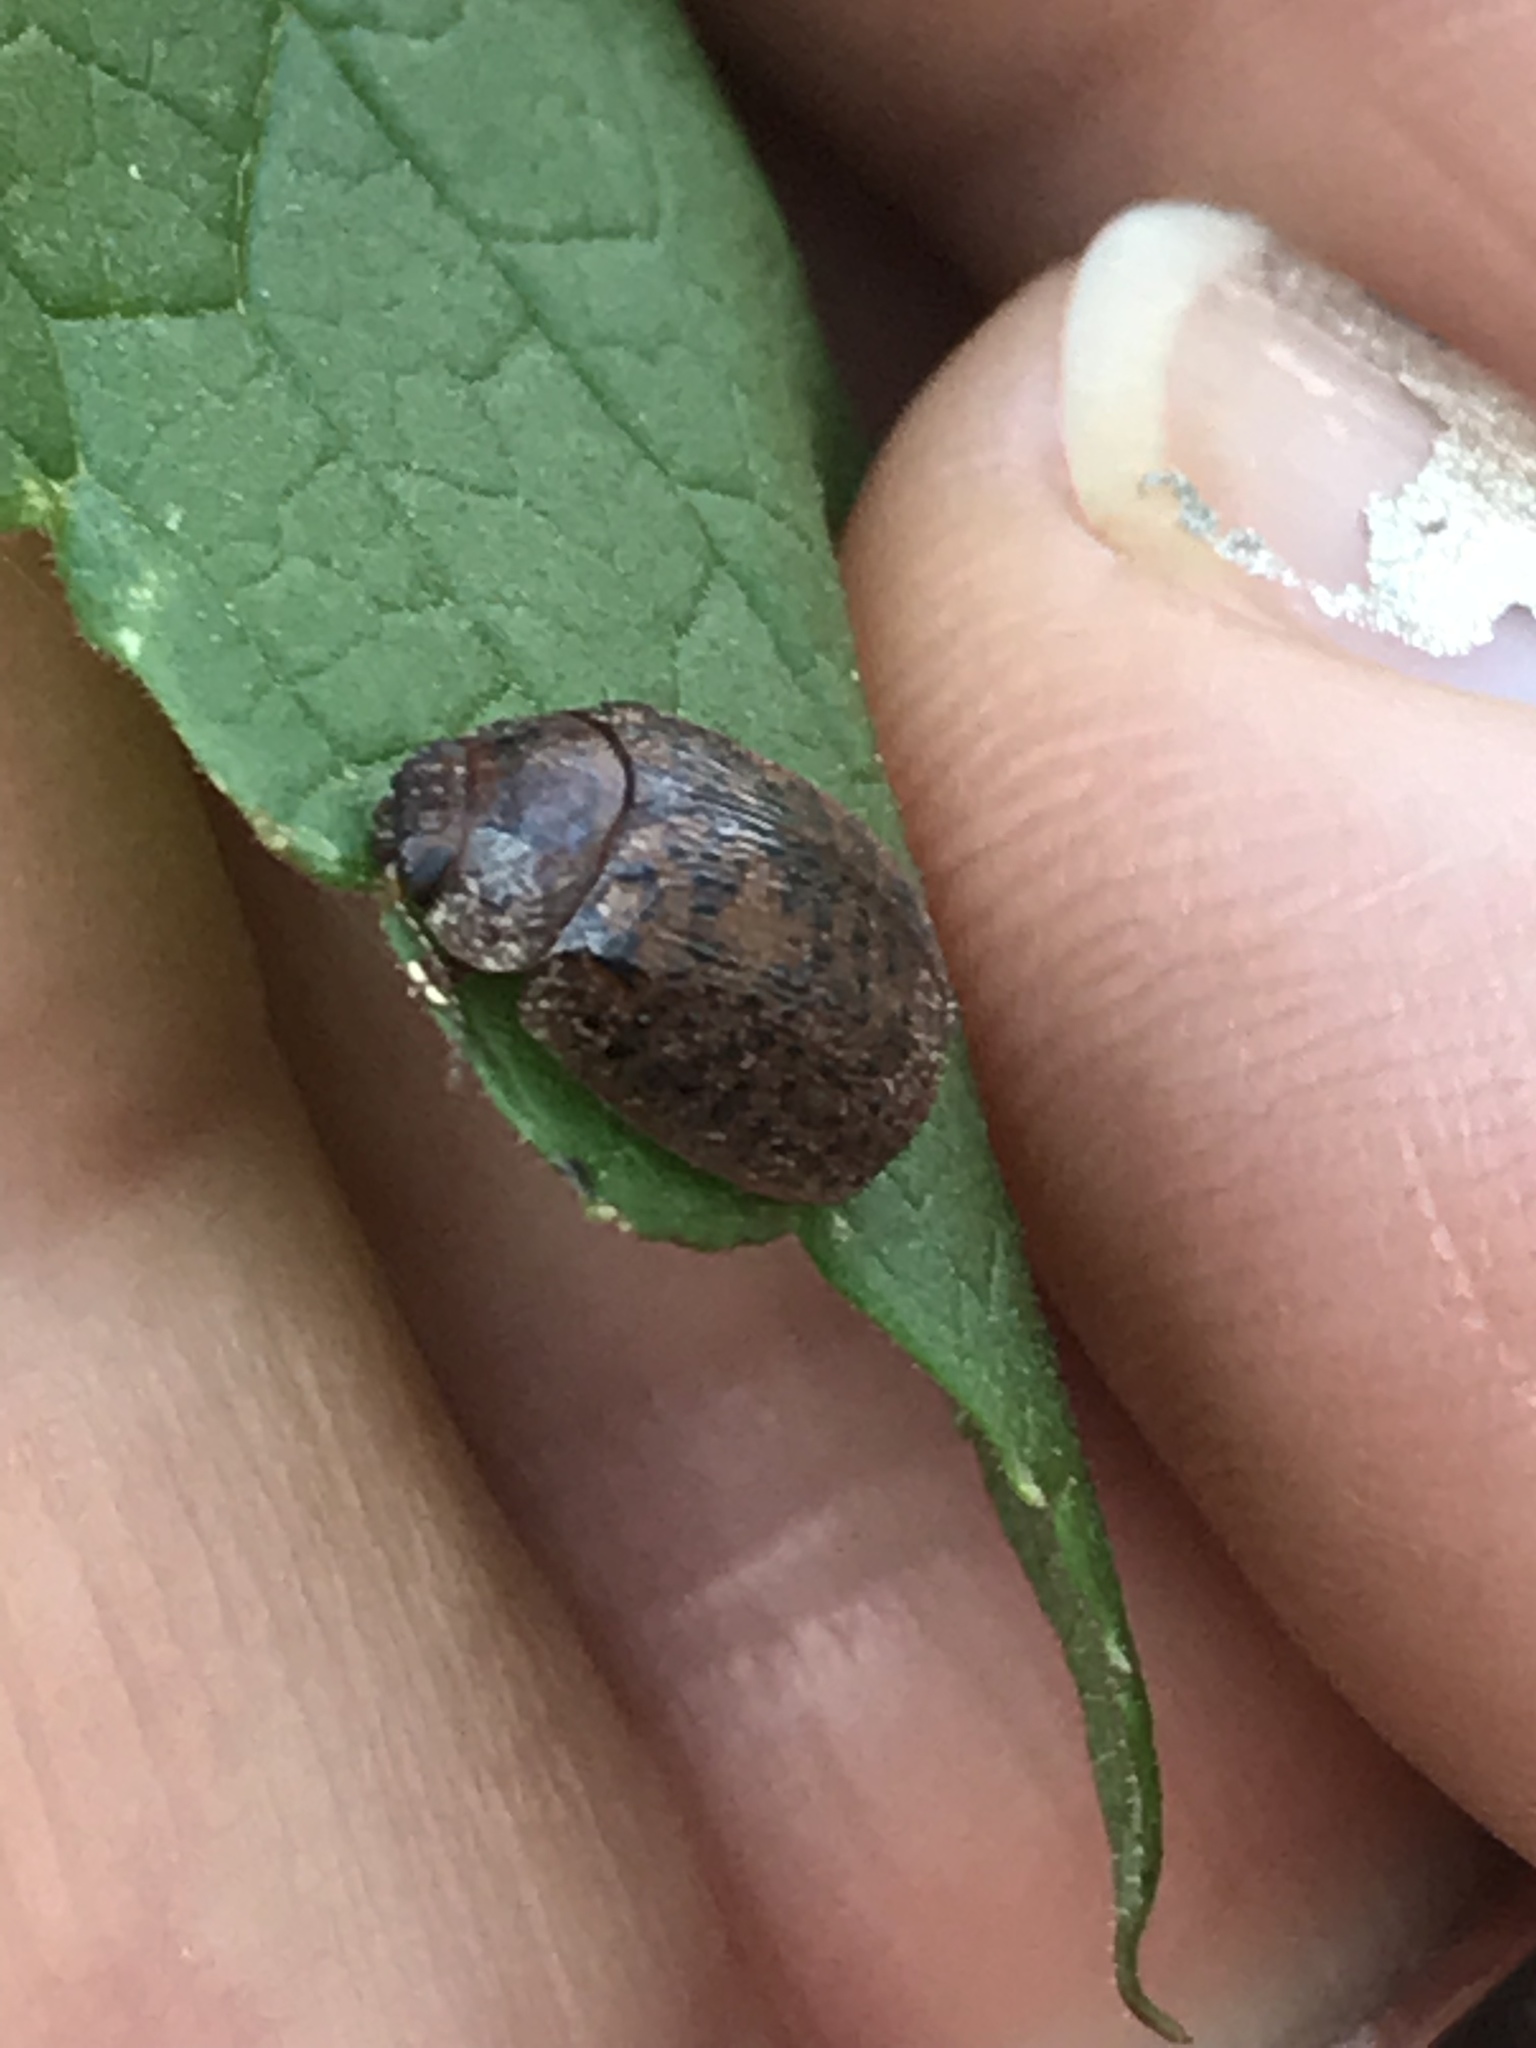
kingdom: Animalia
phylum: Arthropoda
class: Insecta
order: Coleoptera
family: Chrysomelidae
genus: Trachymela
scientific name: Trachymela sloanei
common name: Australian tortoise beetle
